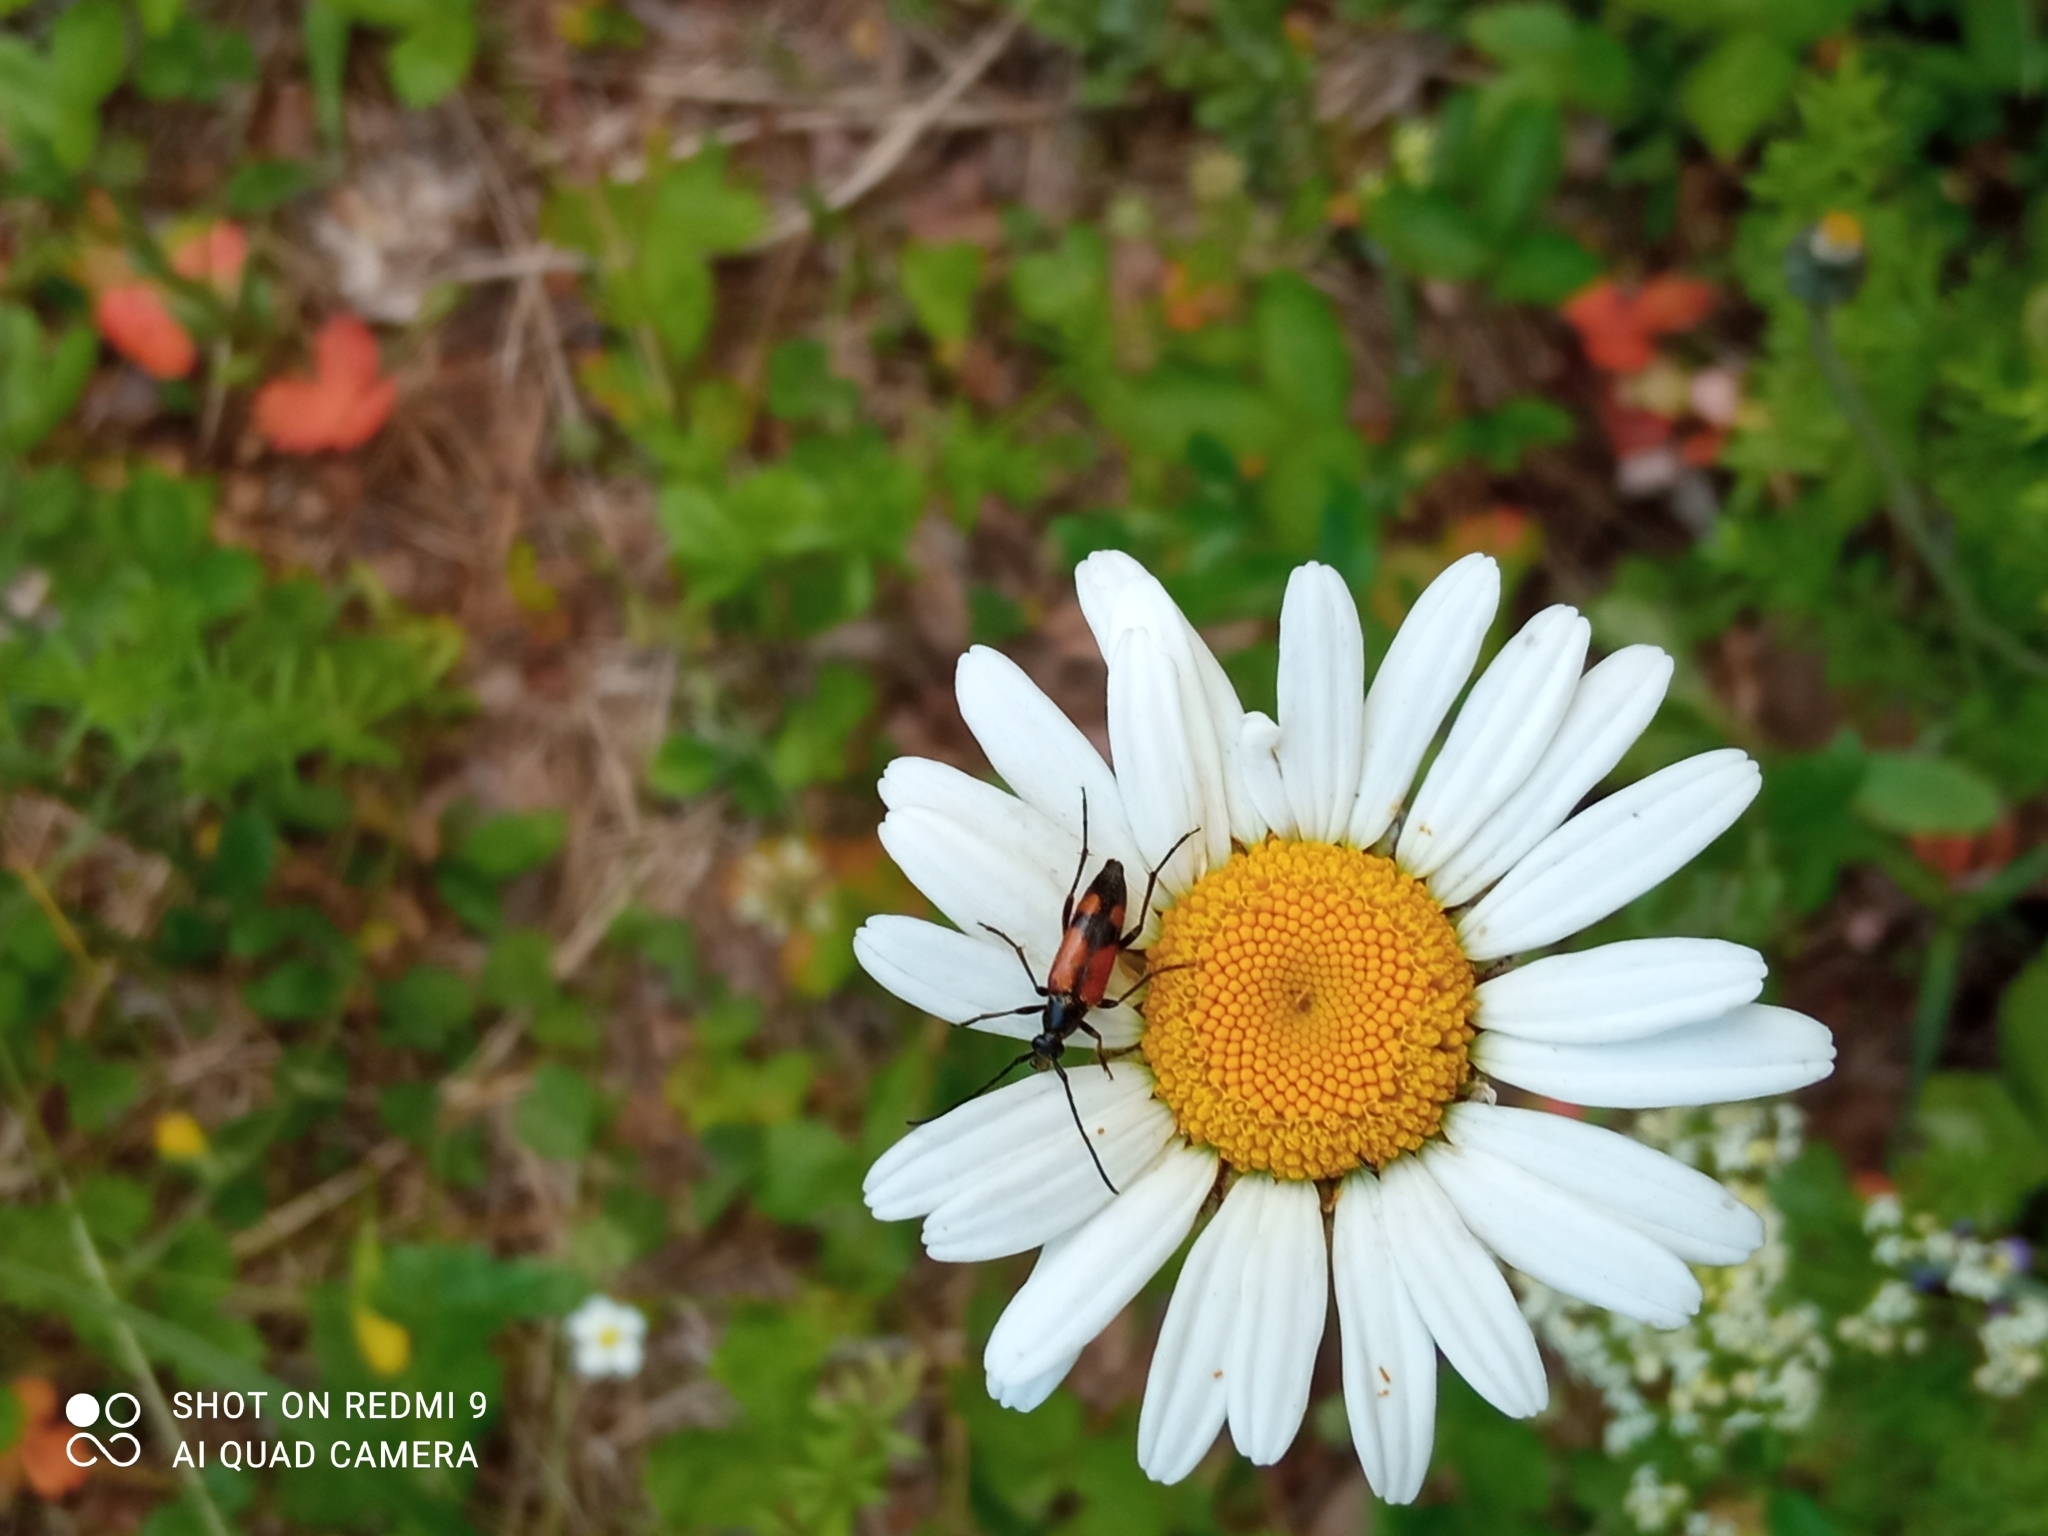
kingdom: Animalia
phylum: Arthropoda
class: Insecta
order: Coleoptera
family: Cerambycidae
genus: Stenurella
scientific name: Stenurella bifasciata
